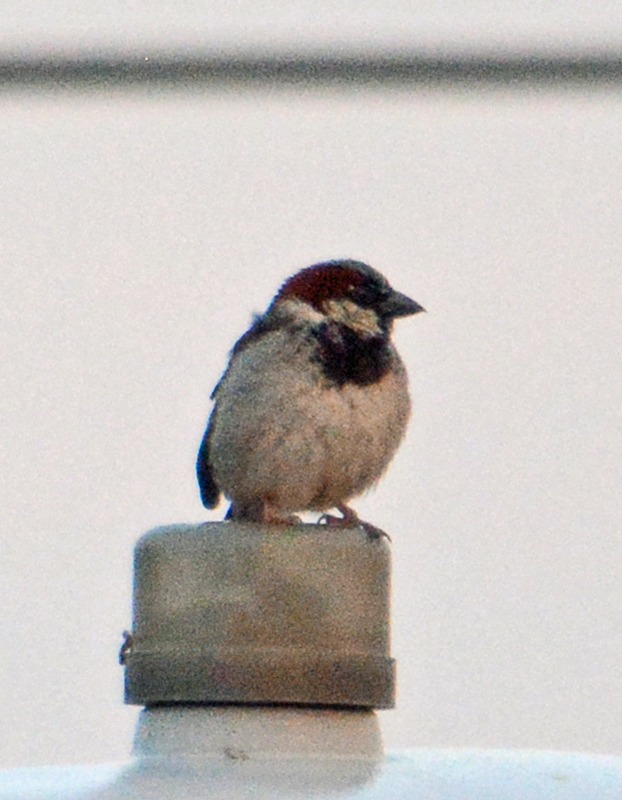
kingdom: Animalia
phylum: Chordata
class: Aves
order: Passeriformes
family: Passeridae
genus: Passer
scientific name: Passer domesticus
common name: House sparrow
